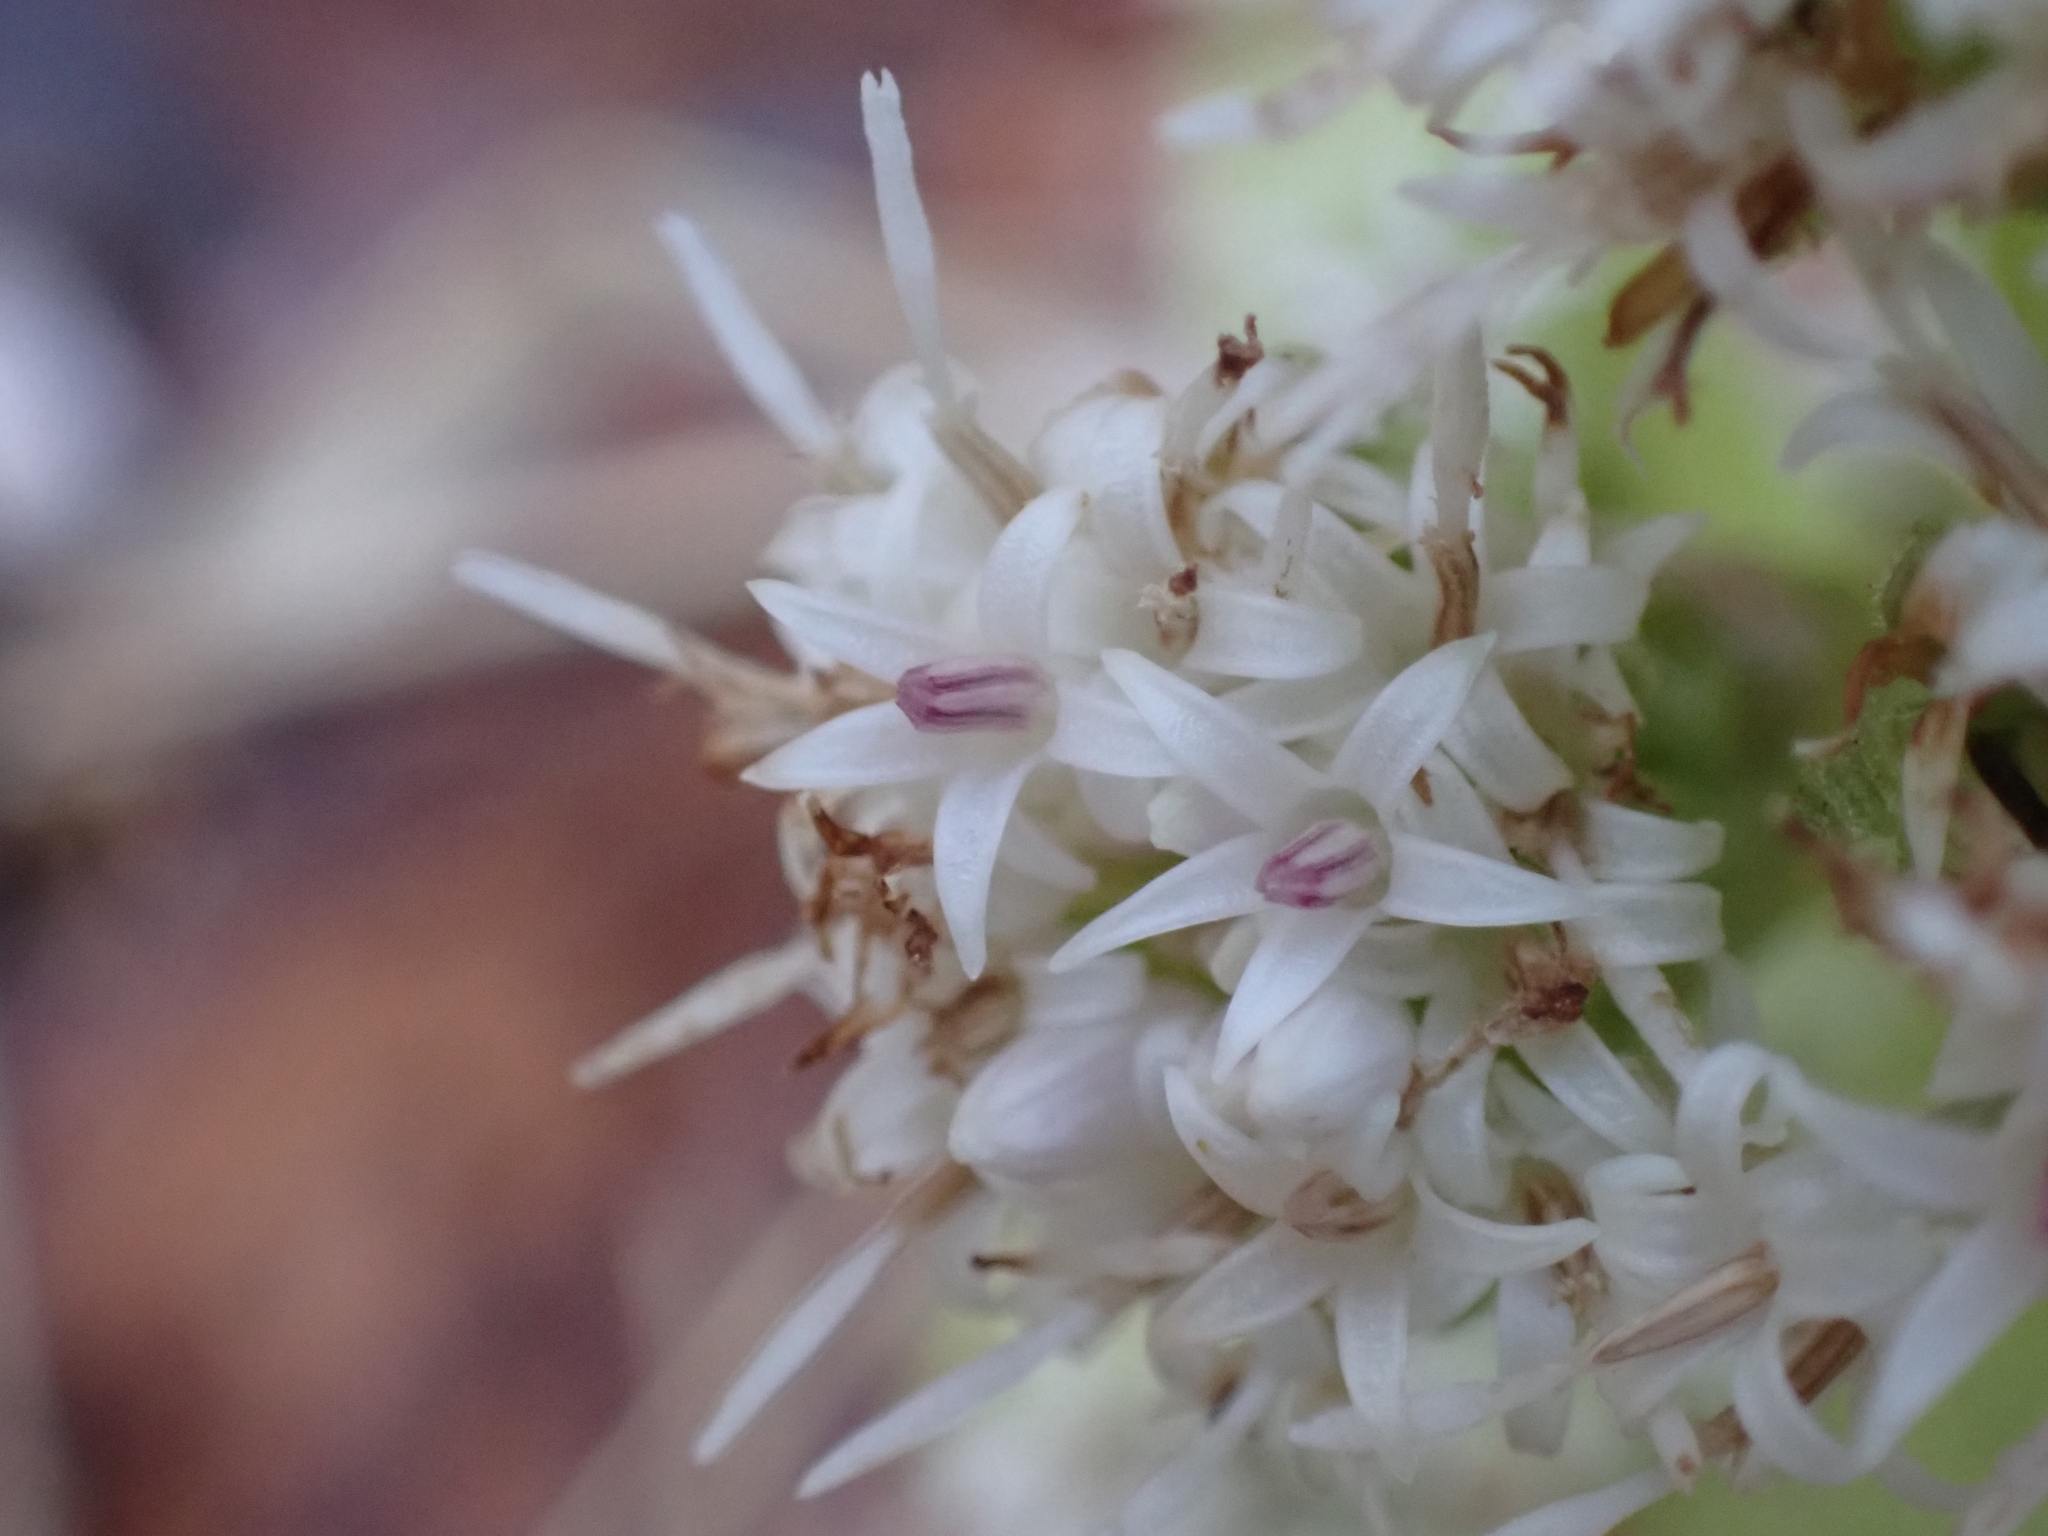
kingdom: Plantae
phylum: Tracheophyta
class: Magnoliopsida
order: Asterales
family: Asteraceae
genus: Petasites
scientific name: Petasites albus
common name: White butterbur
